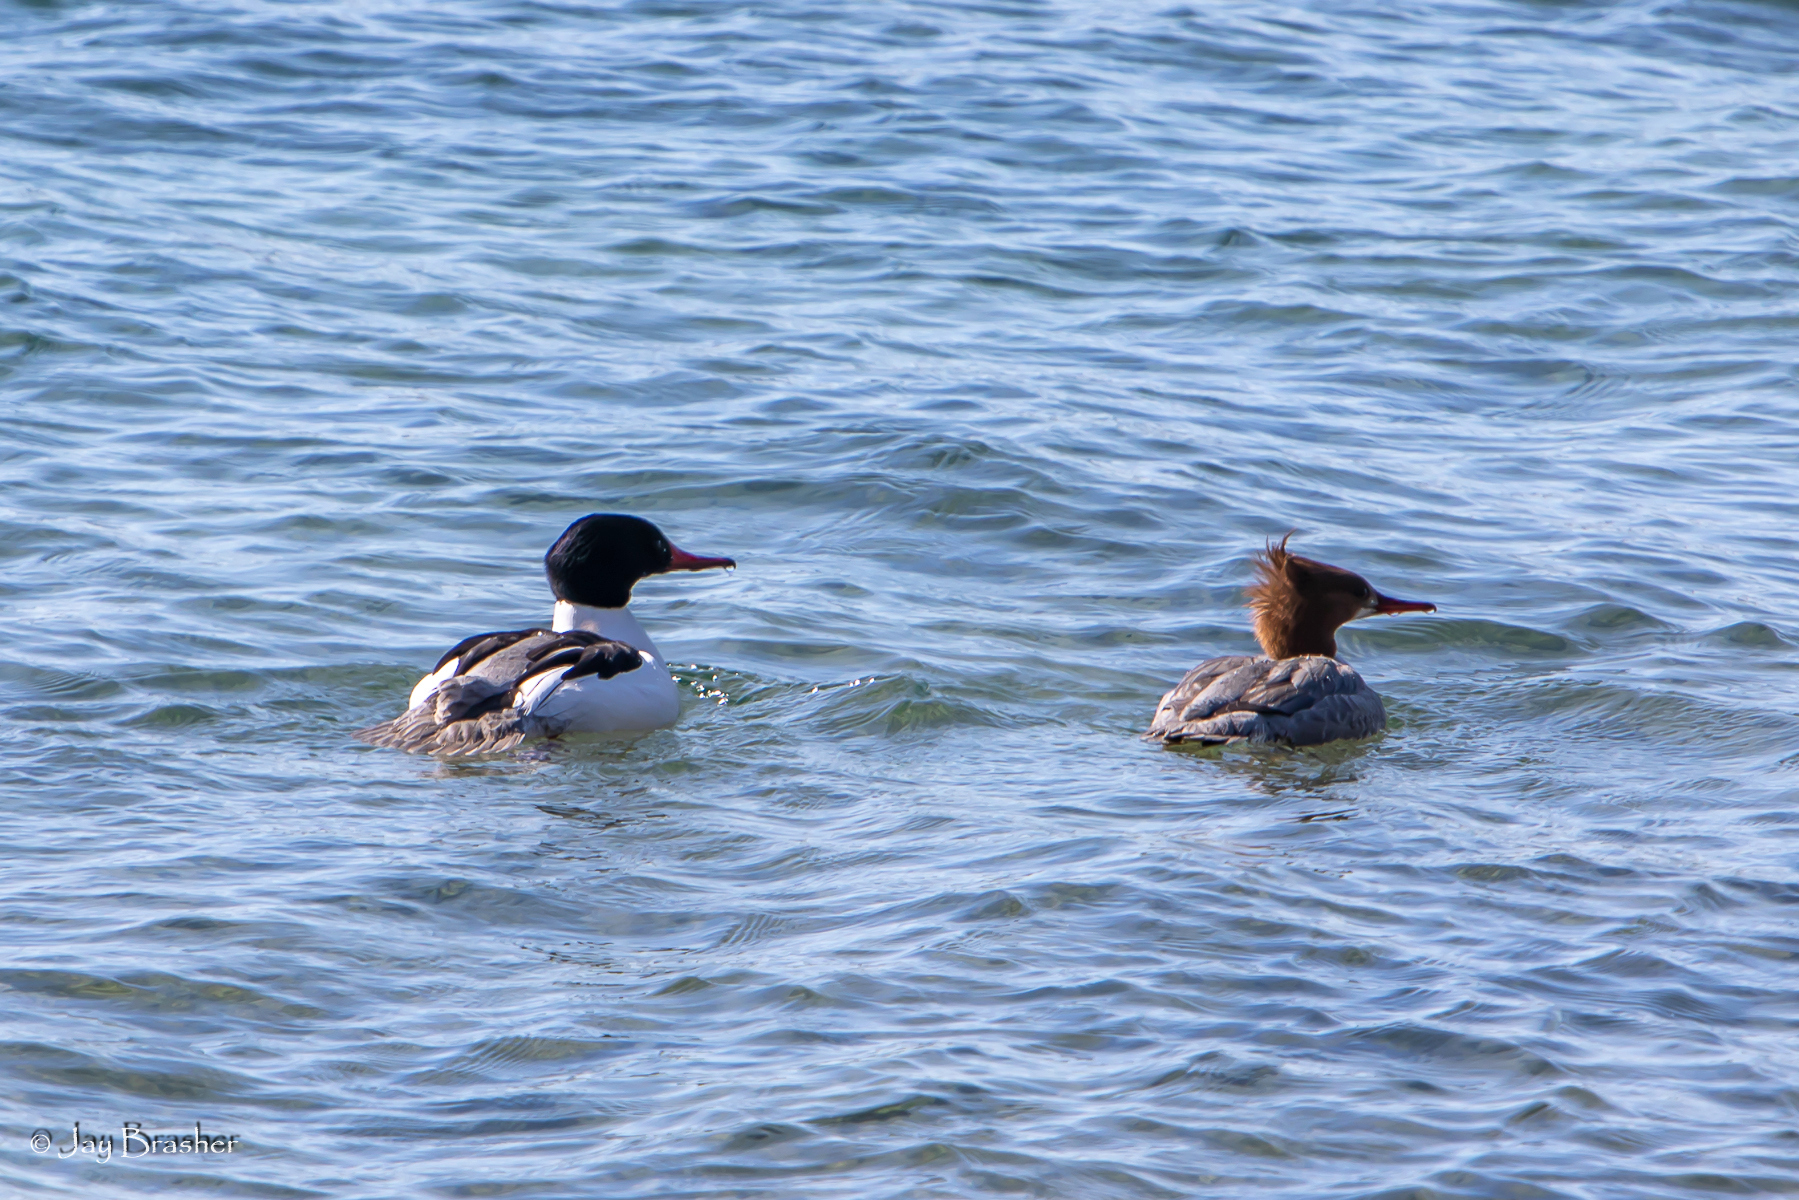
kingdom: Animalia
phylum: Chordata
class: Aves
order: Anseriformes
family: Anatidae
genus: Mergus
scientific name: Mergus merganser
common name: Common merganser
